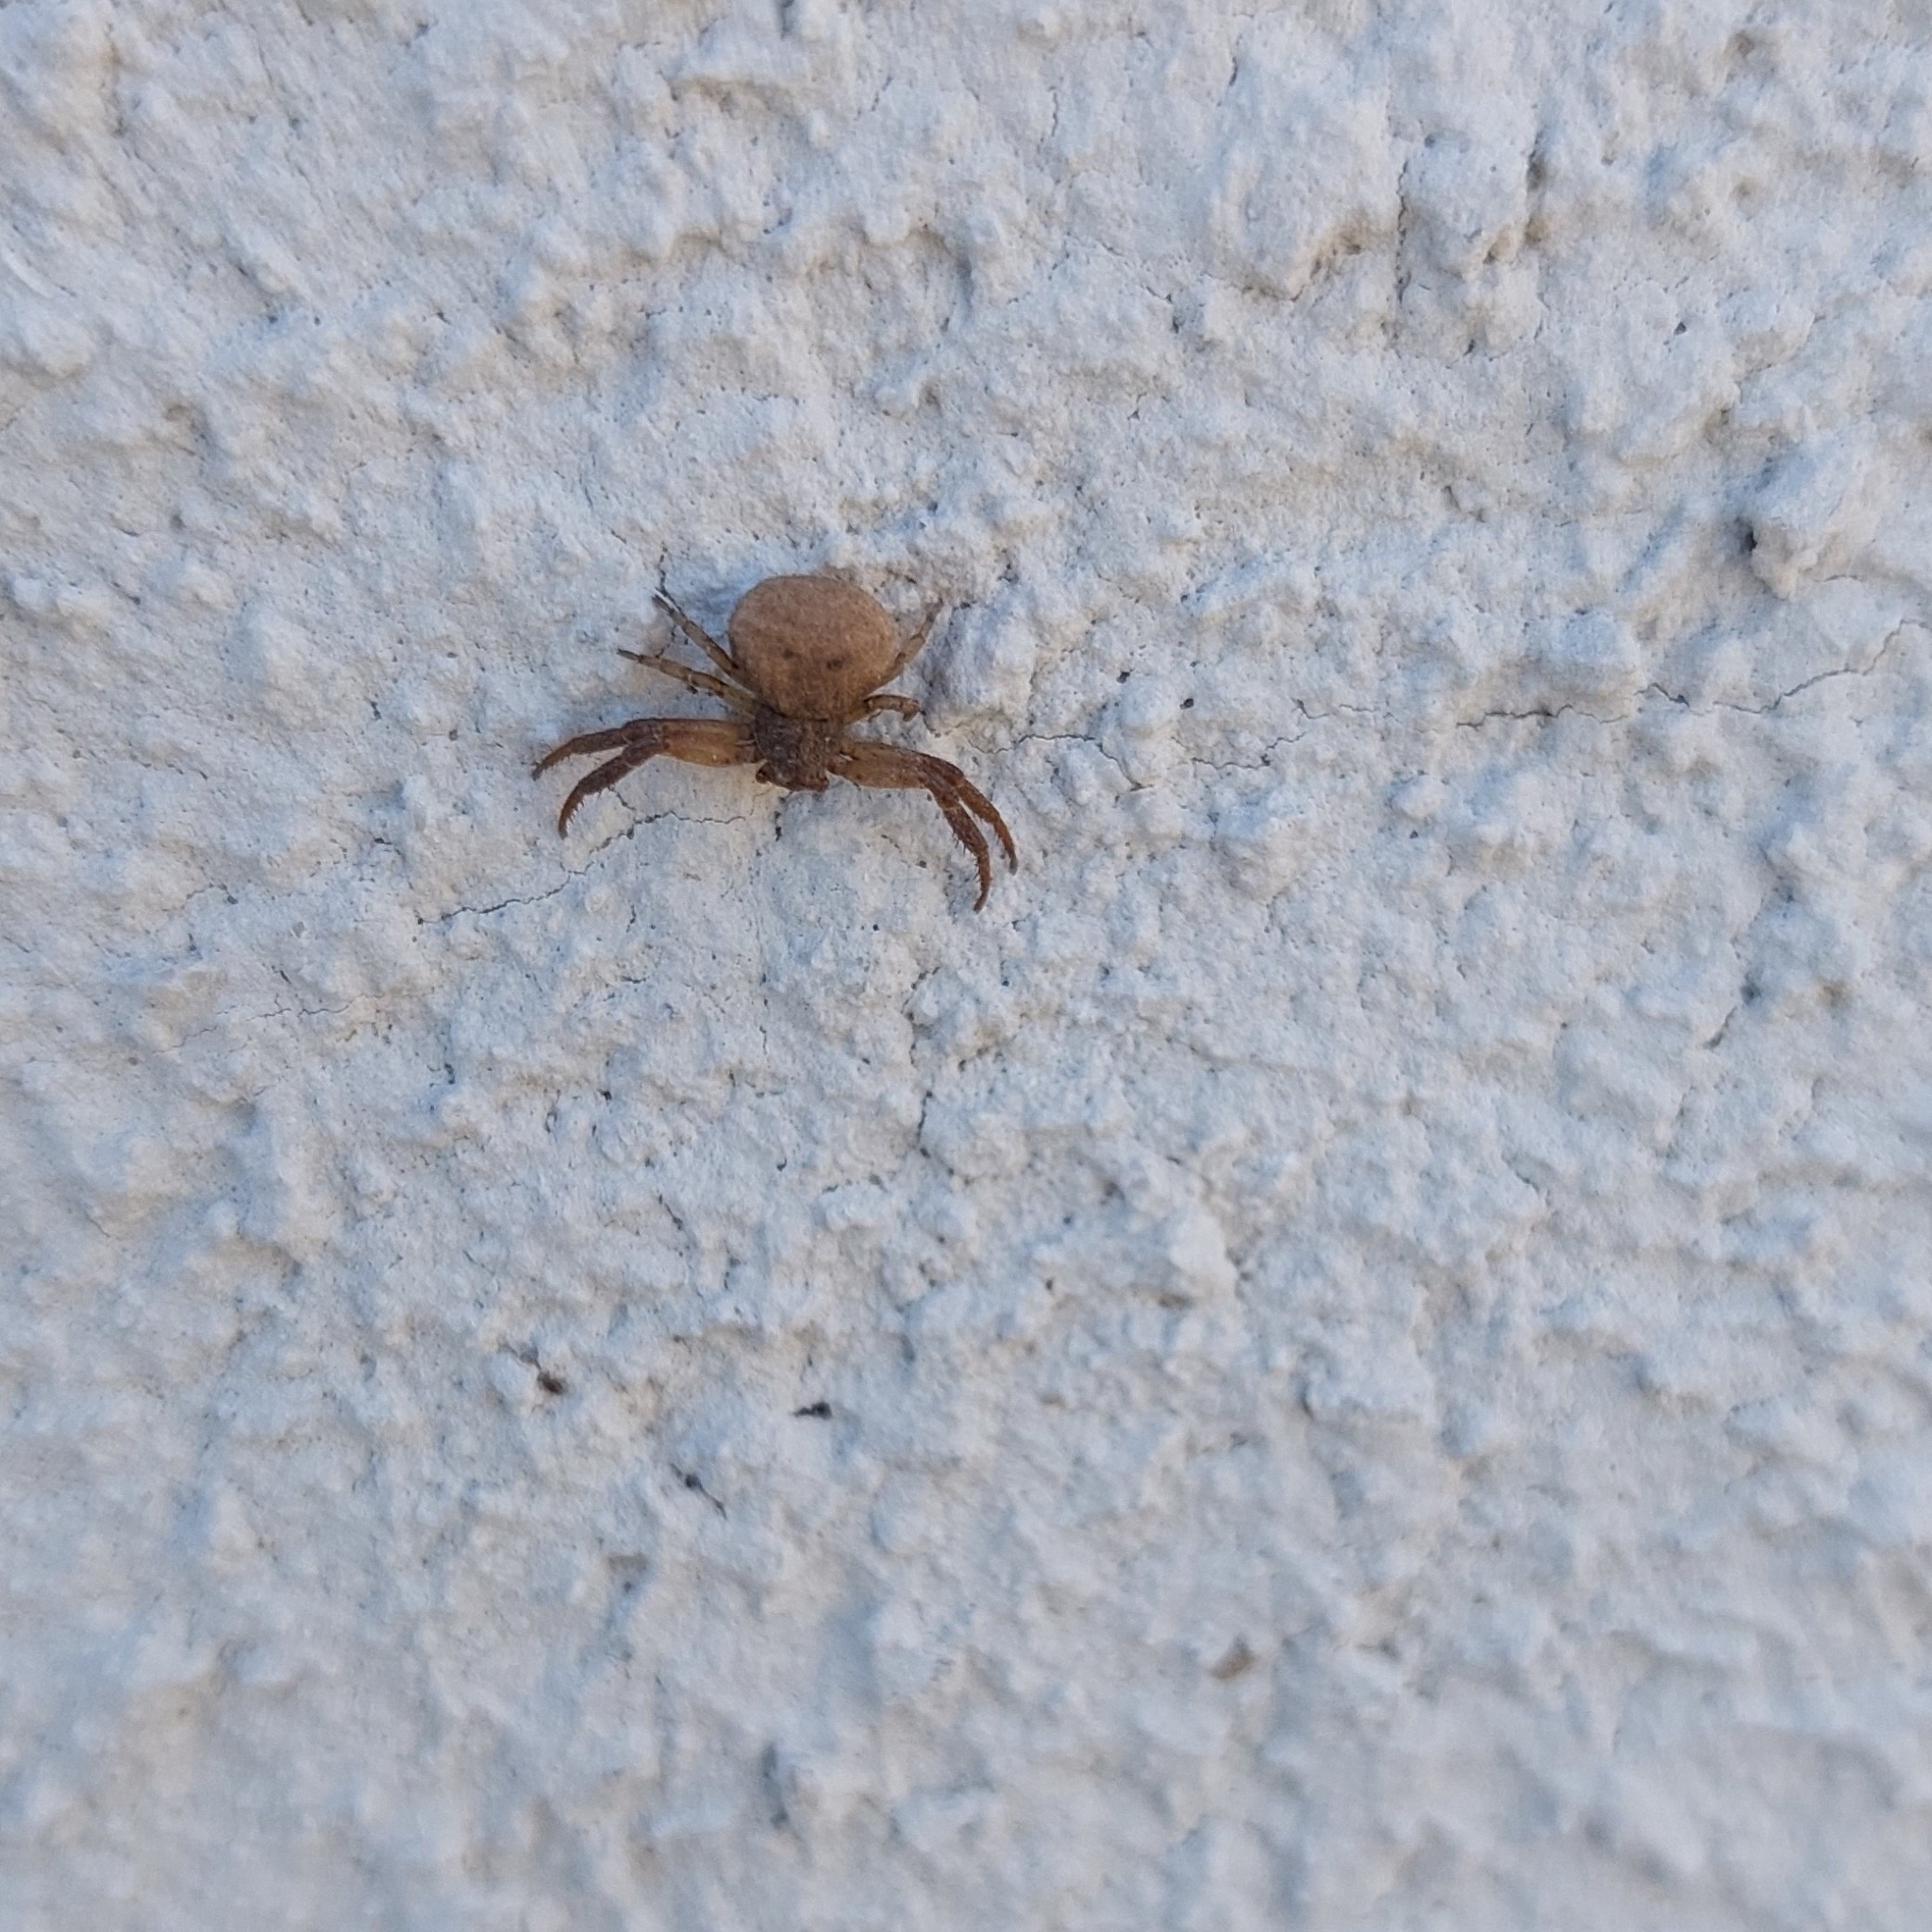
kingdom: Animalia
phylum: Arthropoda
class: Arachnida
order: Araneae
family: Thomisidae
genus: Misumenoides
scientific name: Misumenoides athleticus
